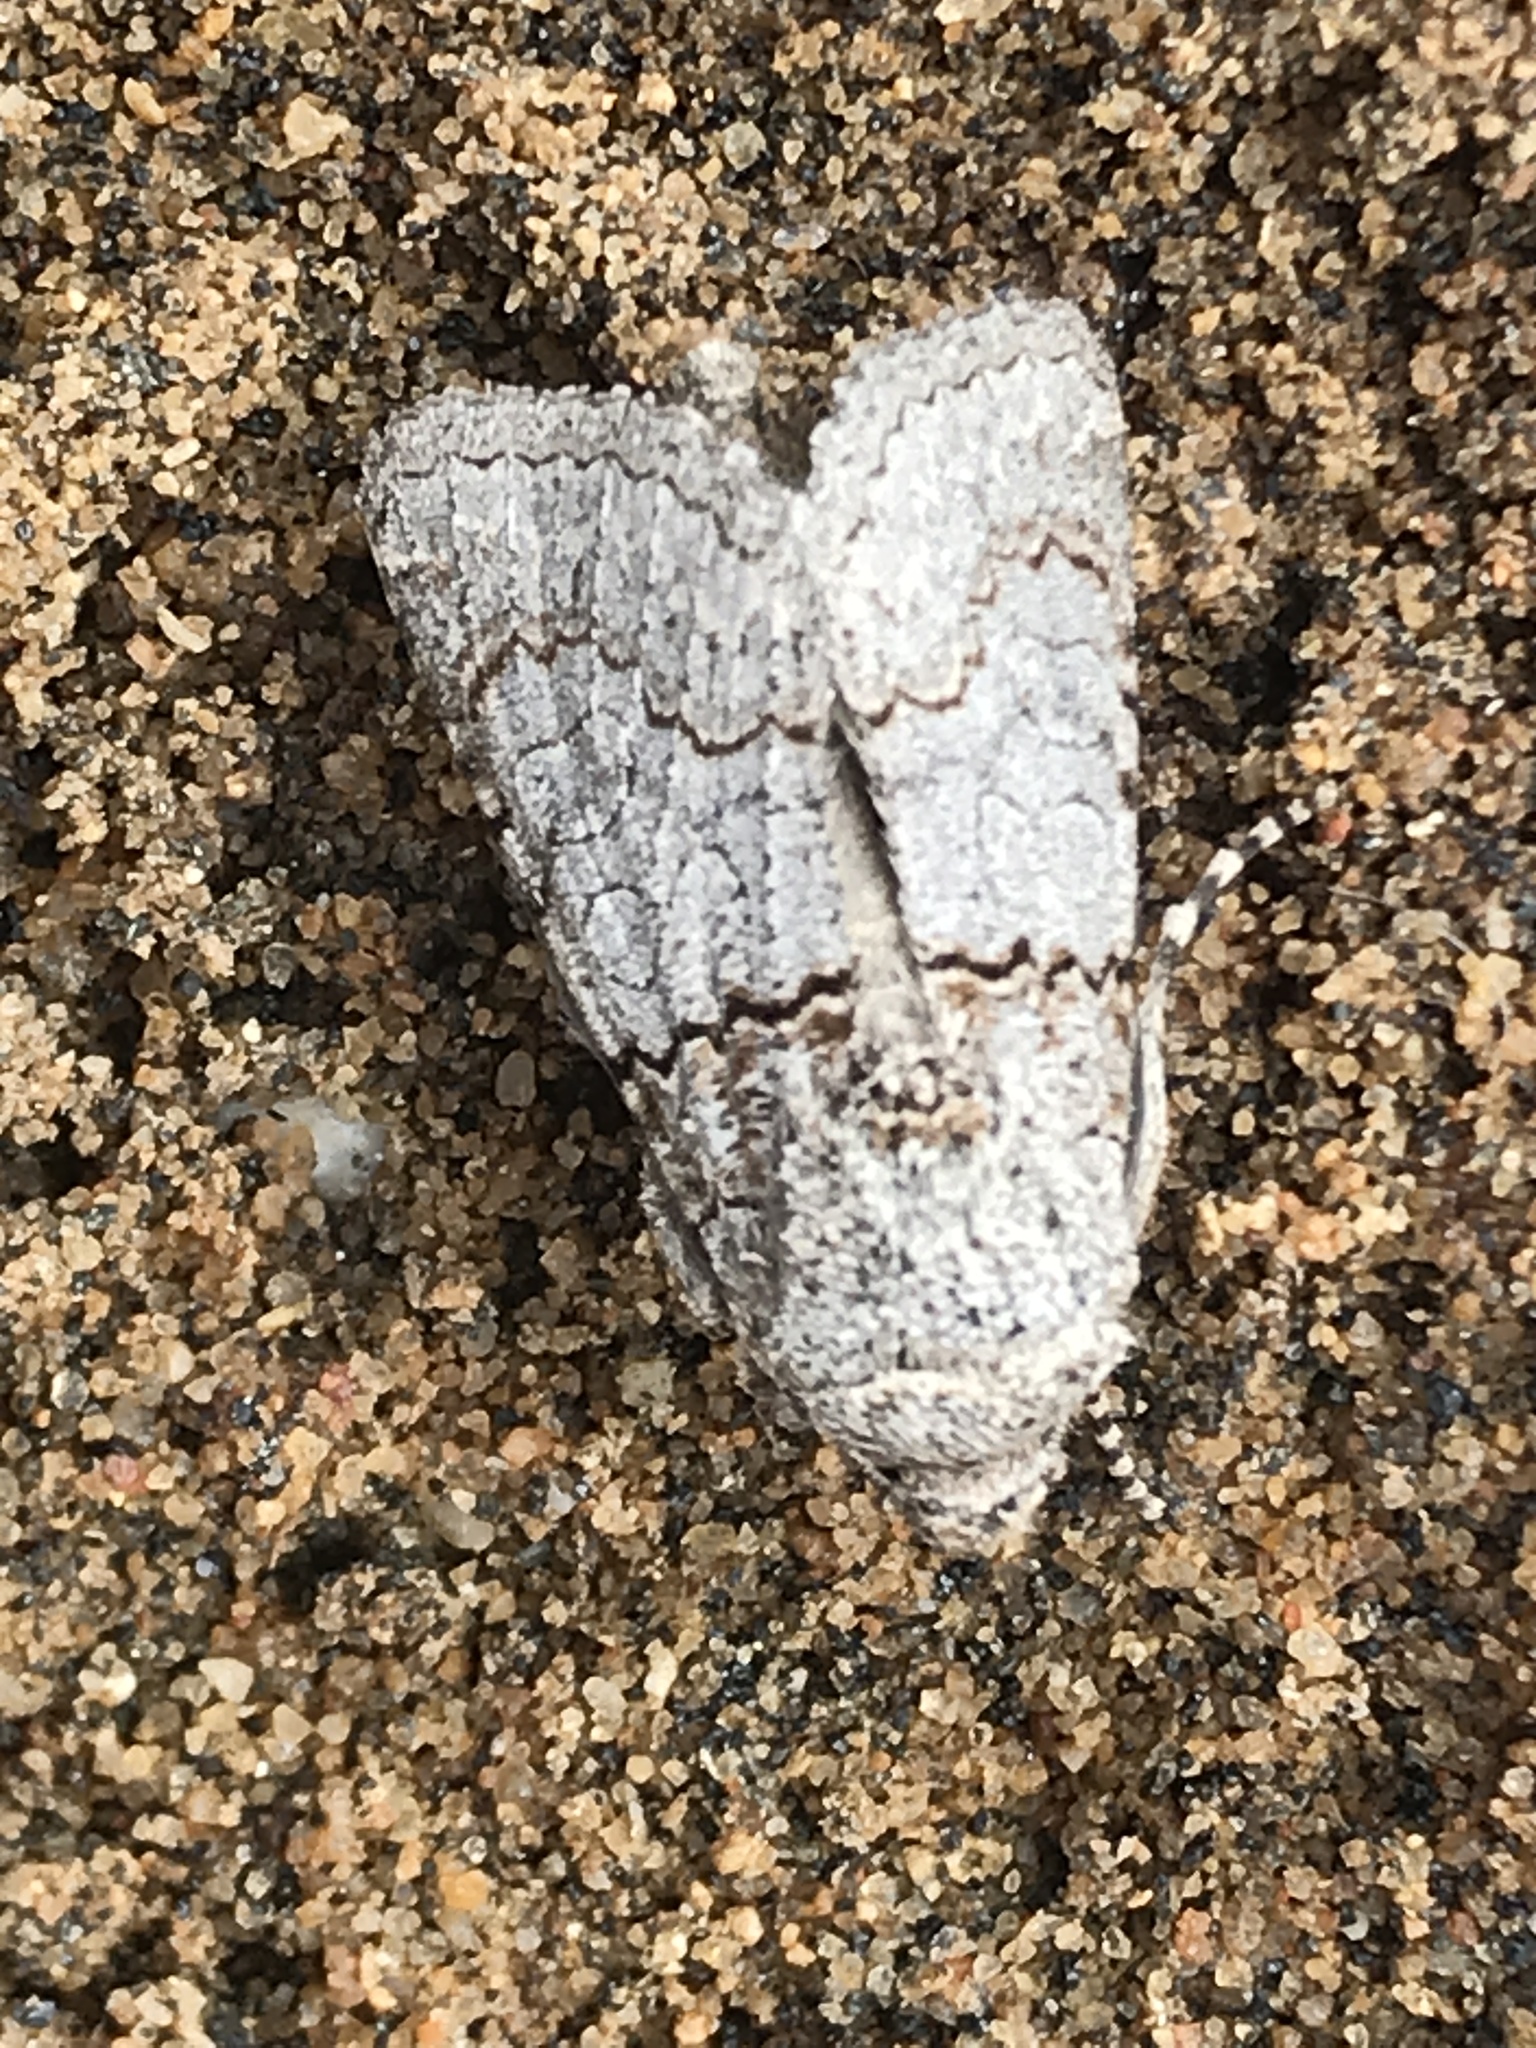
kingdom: Animalia
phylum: Arthropoda
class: Insecta
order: Lepidoptera
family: Noctuidae
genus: Sympistis
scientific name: Sympistis perscripta
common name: Scribbled sallow
